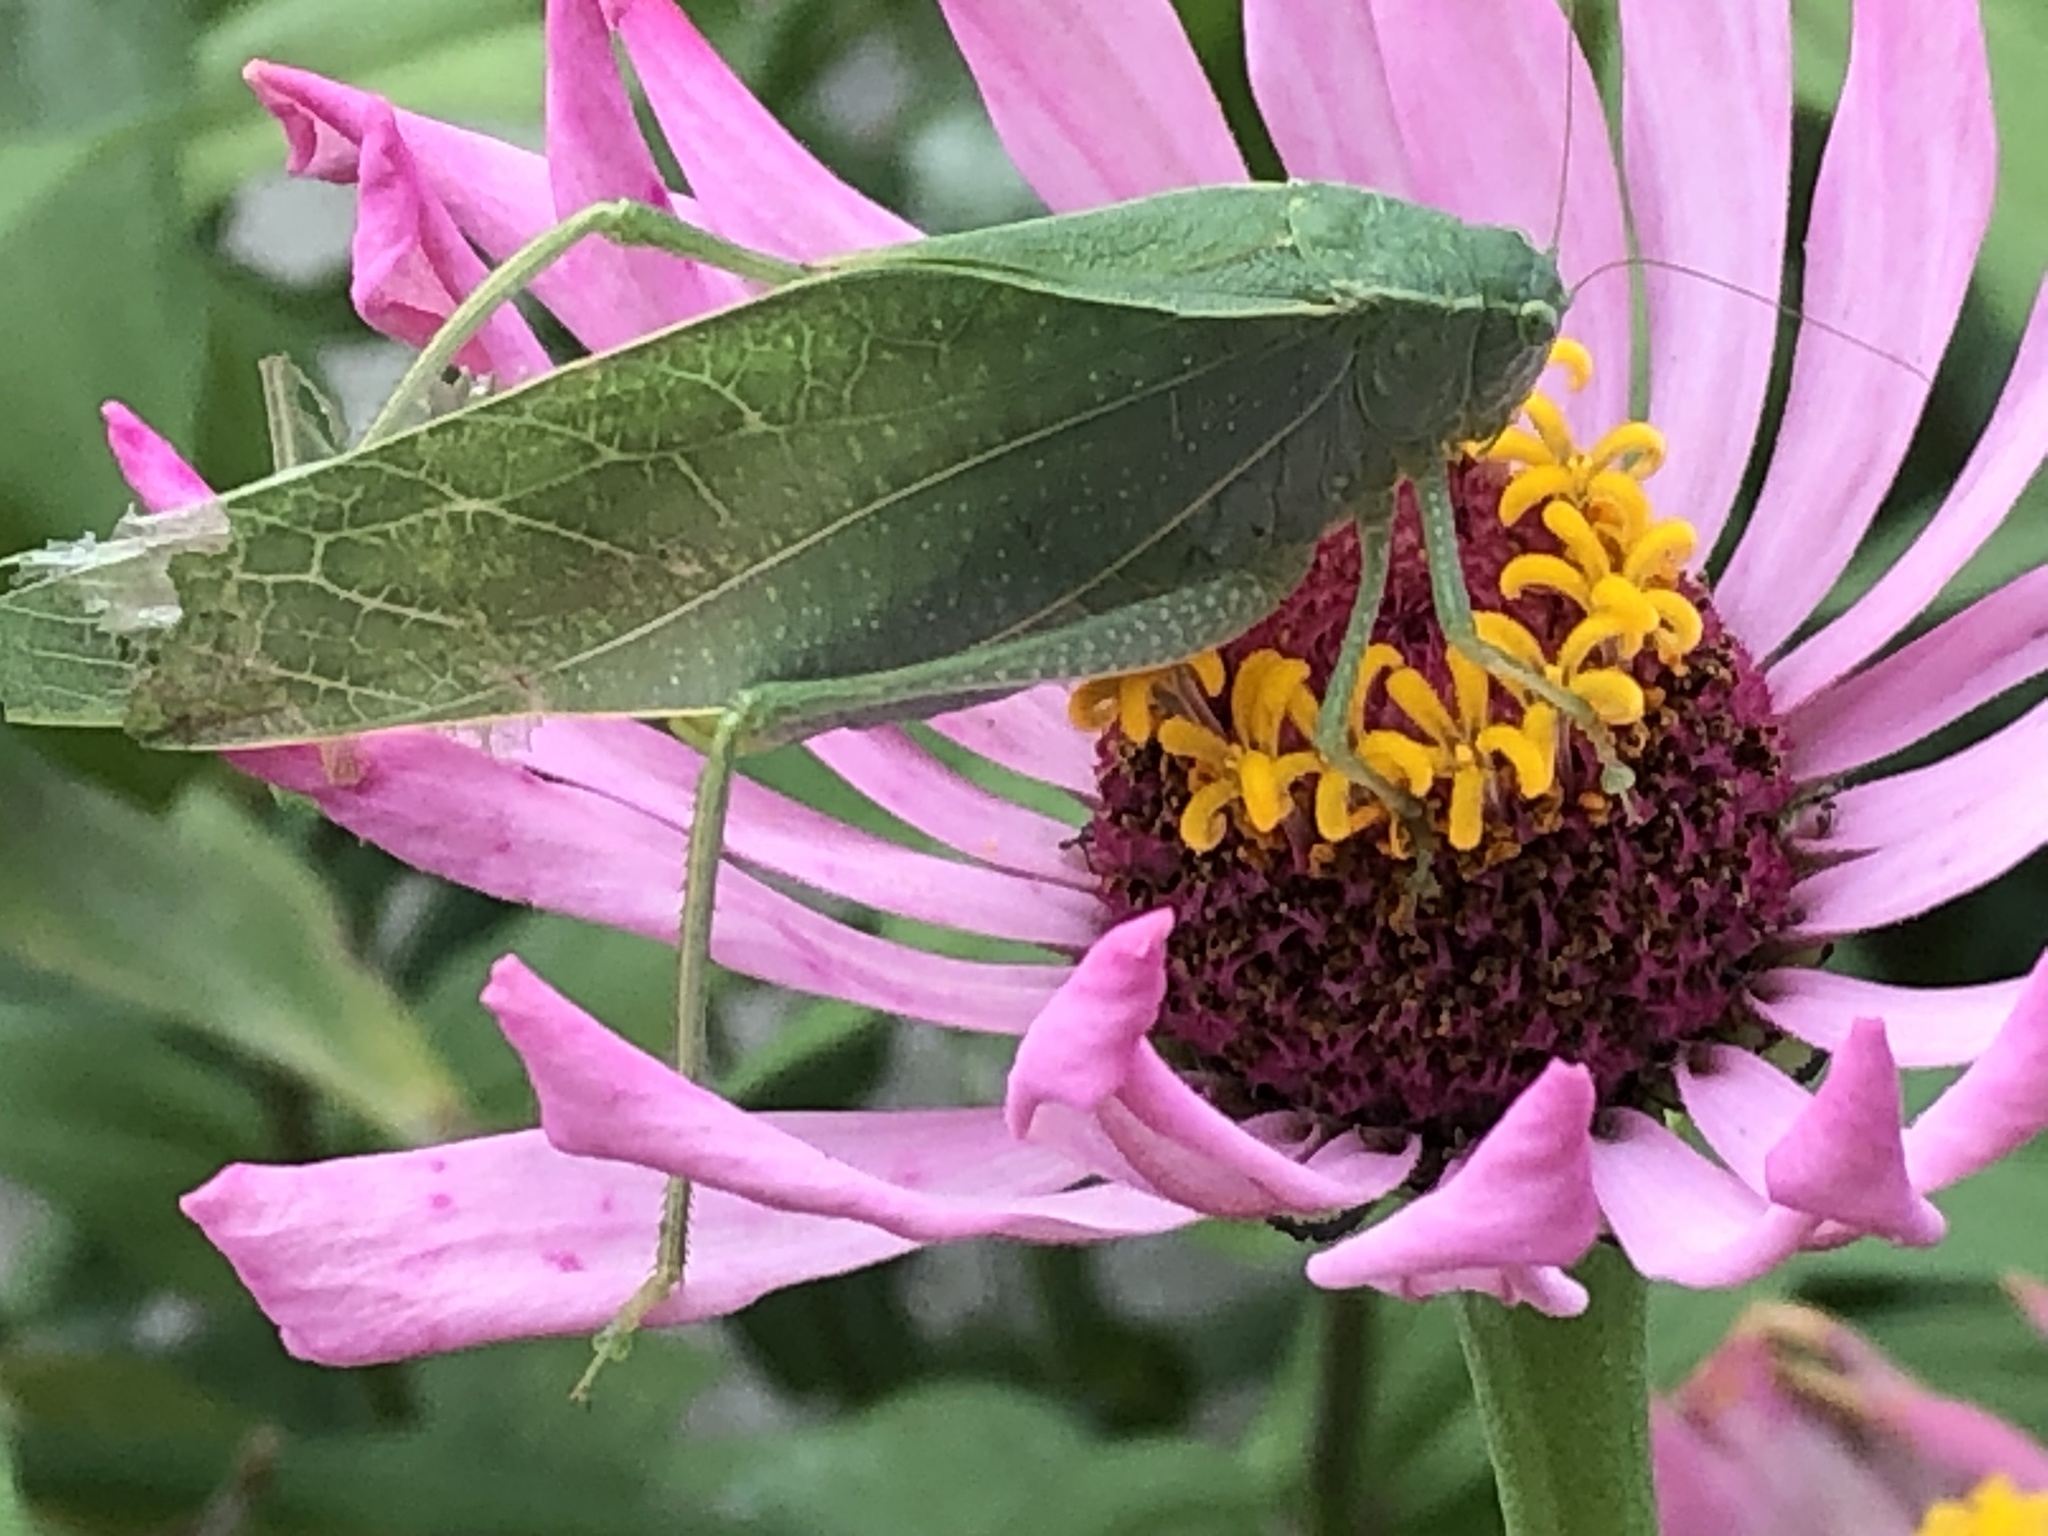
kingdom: Animalia
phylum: Arthropoda
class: Insecta
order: Orthoptera
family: Tettigoniidae
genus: Microcentrum
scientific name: Microcentrum rhombifolium
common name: Broad-winged katydid
